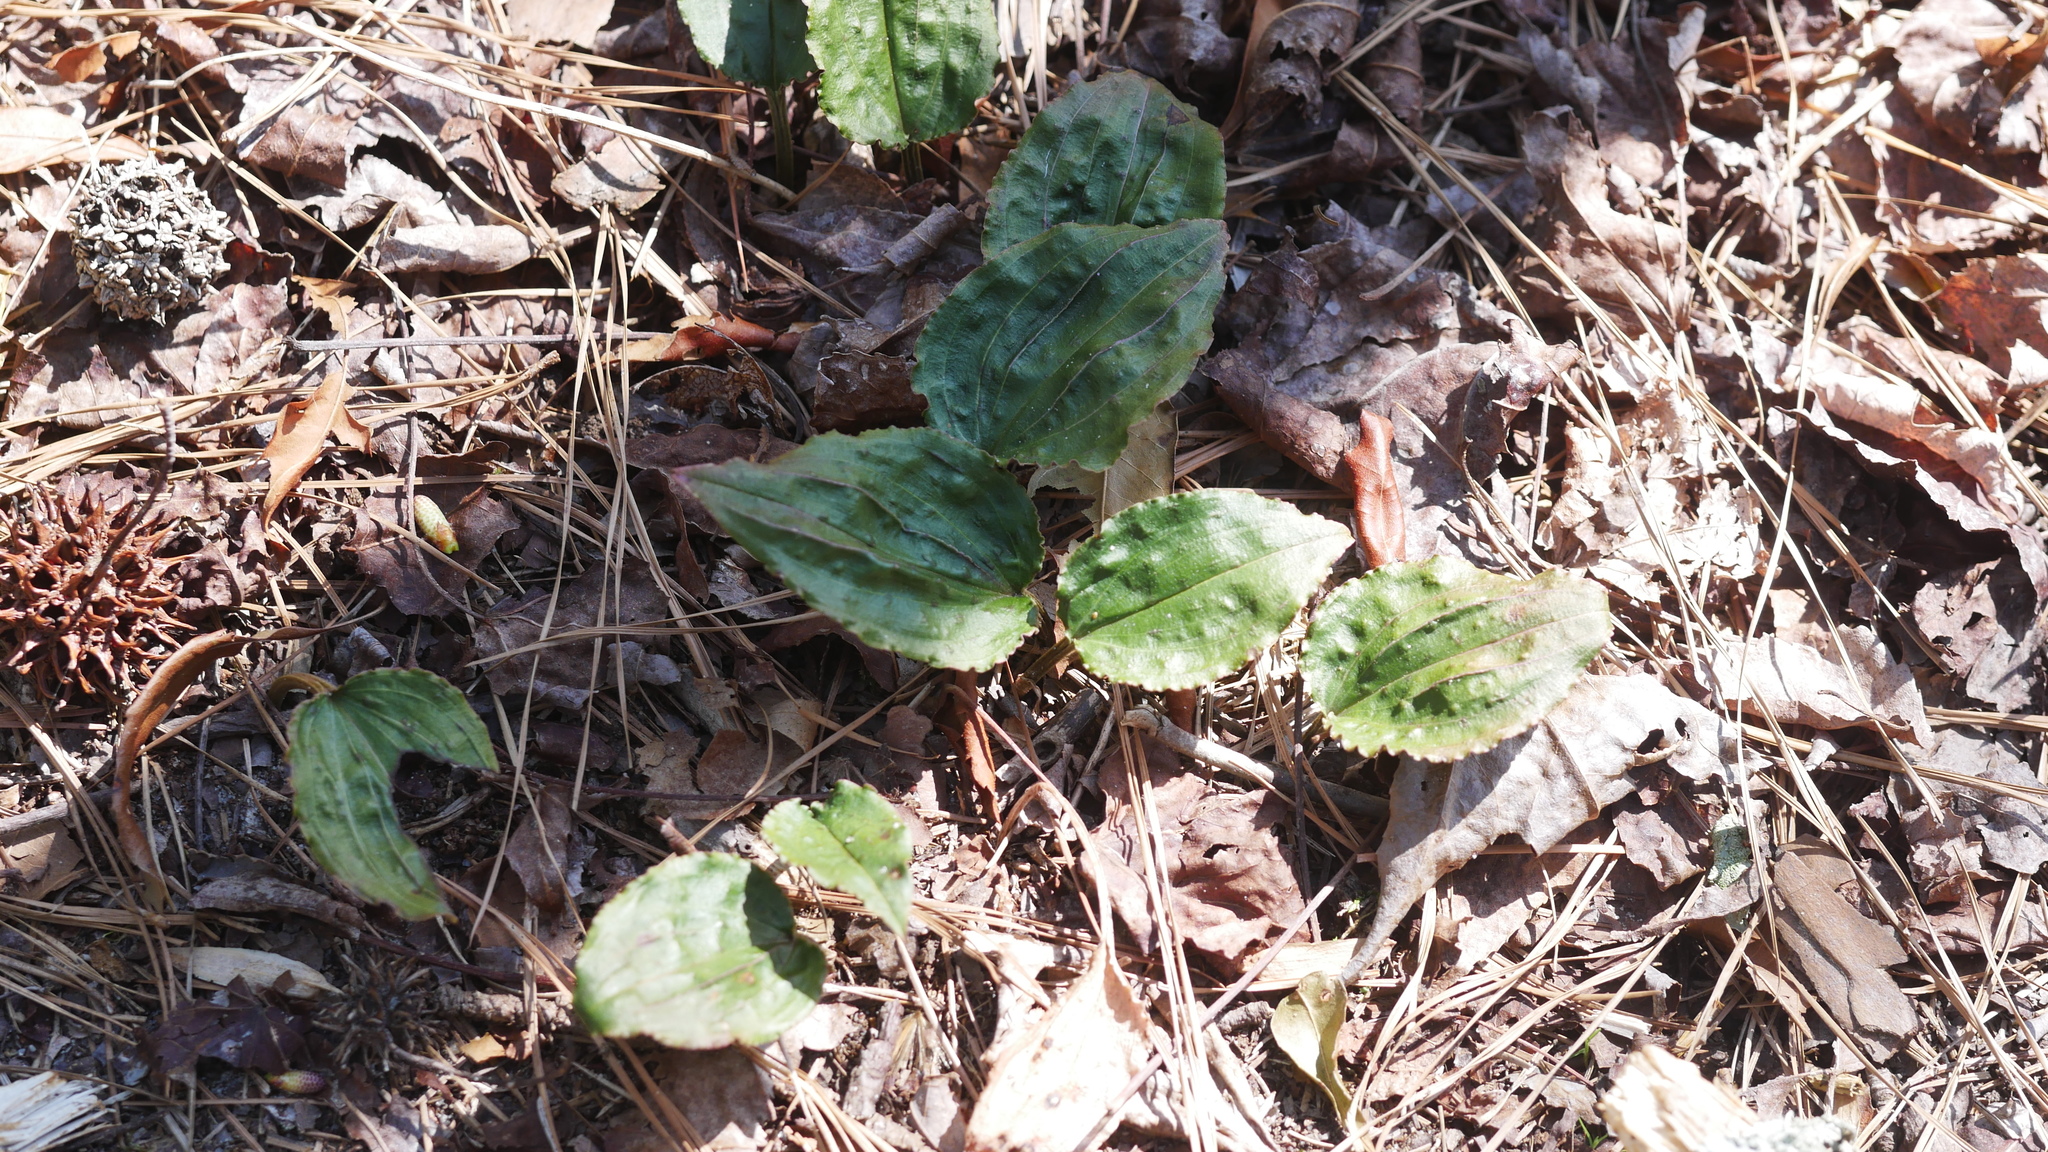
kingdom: Plantae
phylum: Tracheophyta
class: Liliopsida
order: Asparagales
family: Orchidaceae
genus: Tipularia
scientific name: Tipularia discolor
